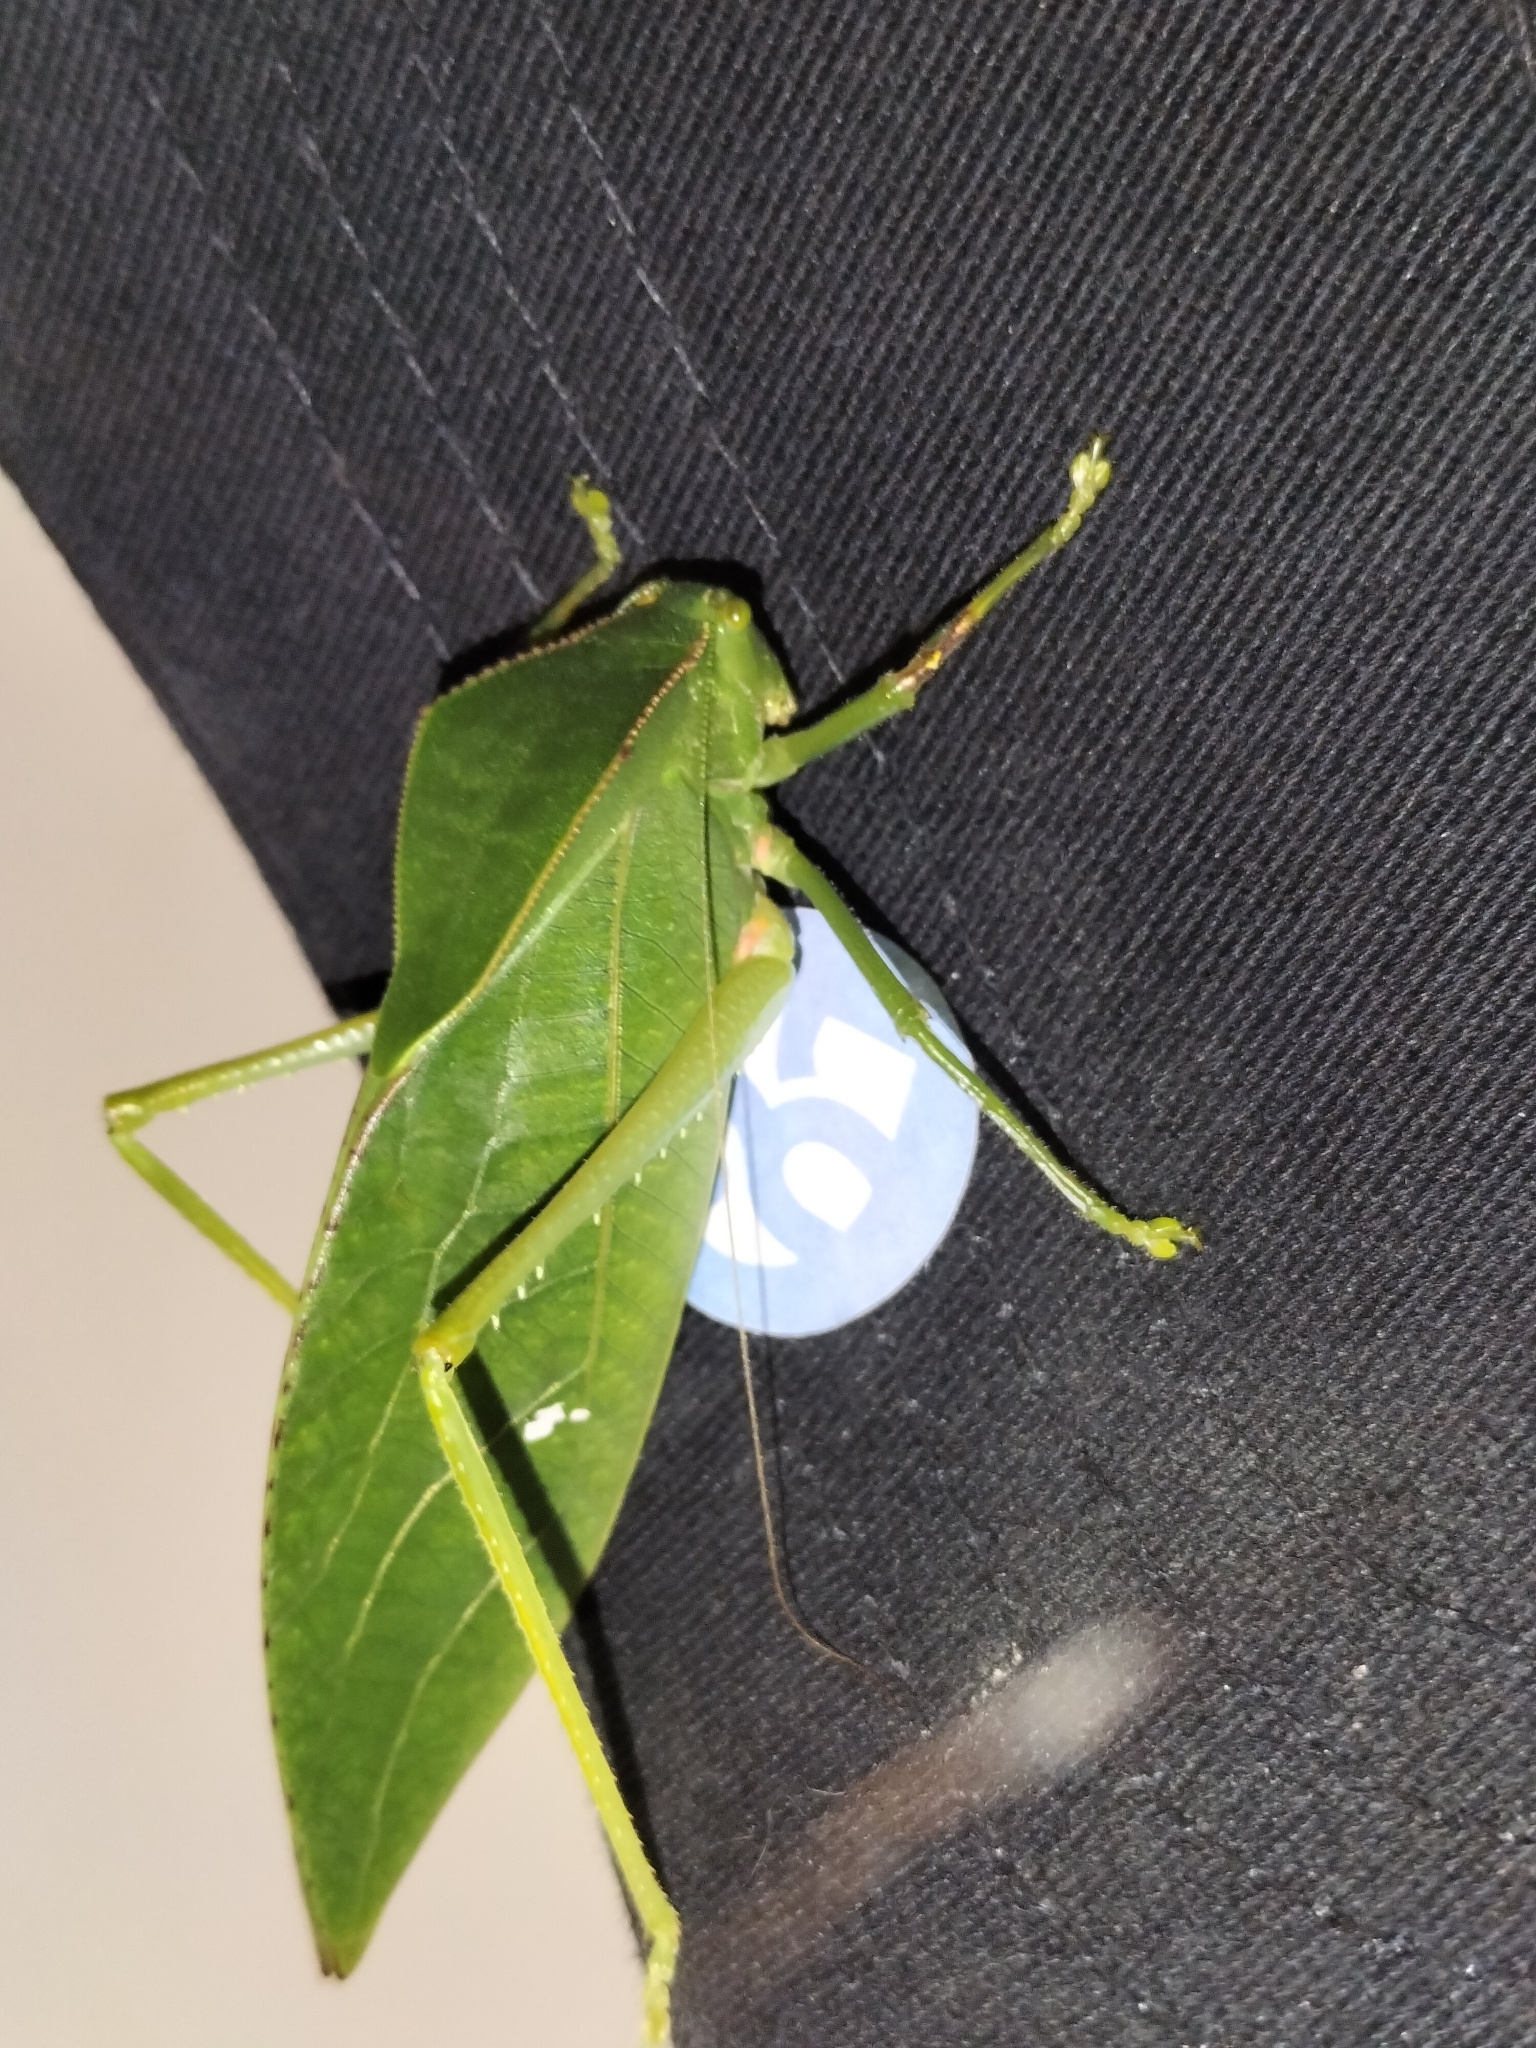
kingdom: Animalia
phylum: Arthropoda
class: Insecta
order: Orthoptera
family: Tettigoniidae
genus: Phyllophorella
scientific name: Phyllophorella queenslandica
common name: Queensland small hooded katydid
